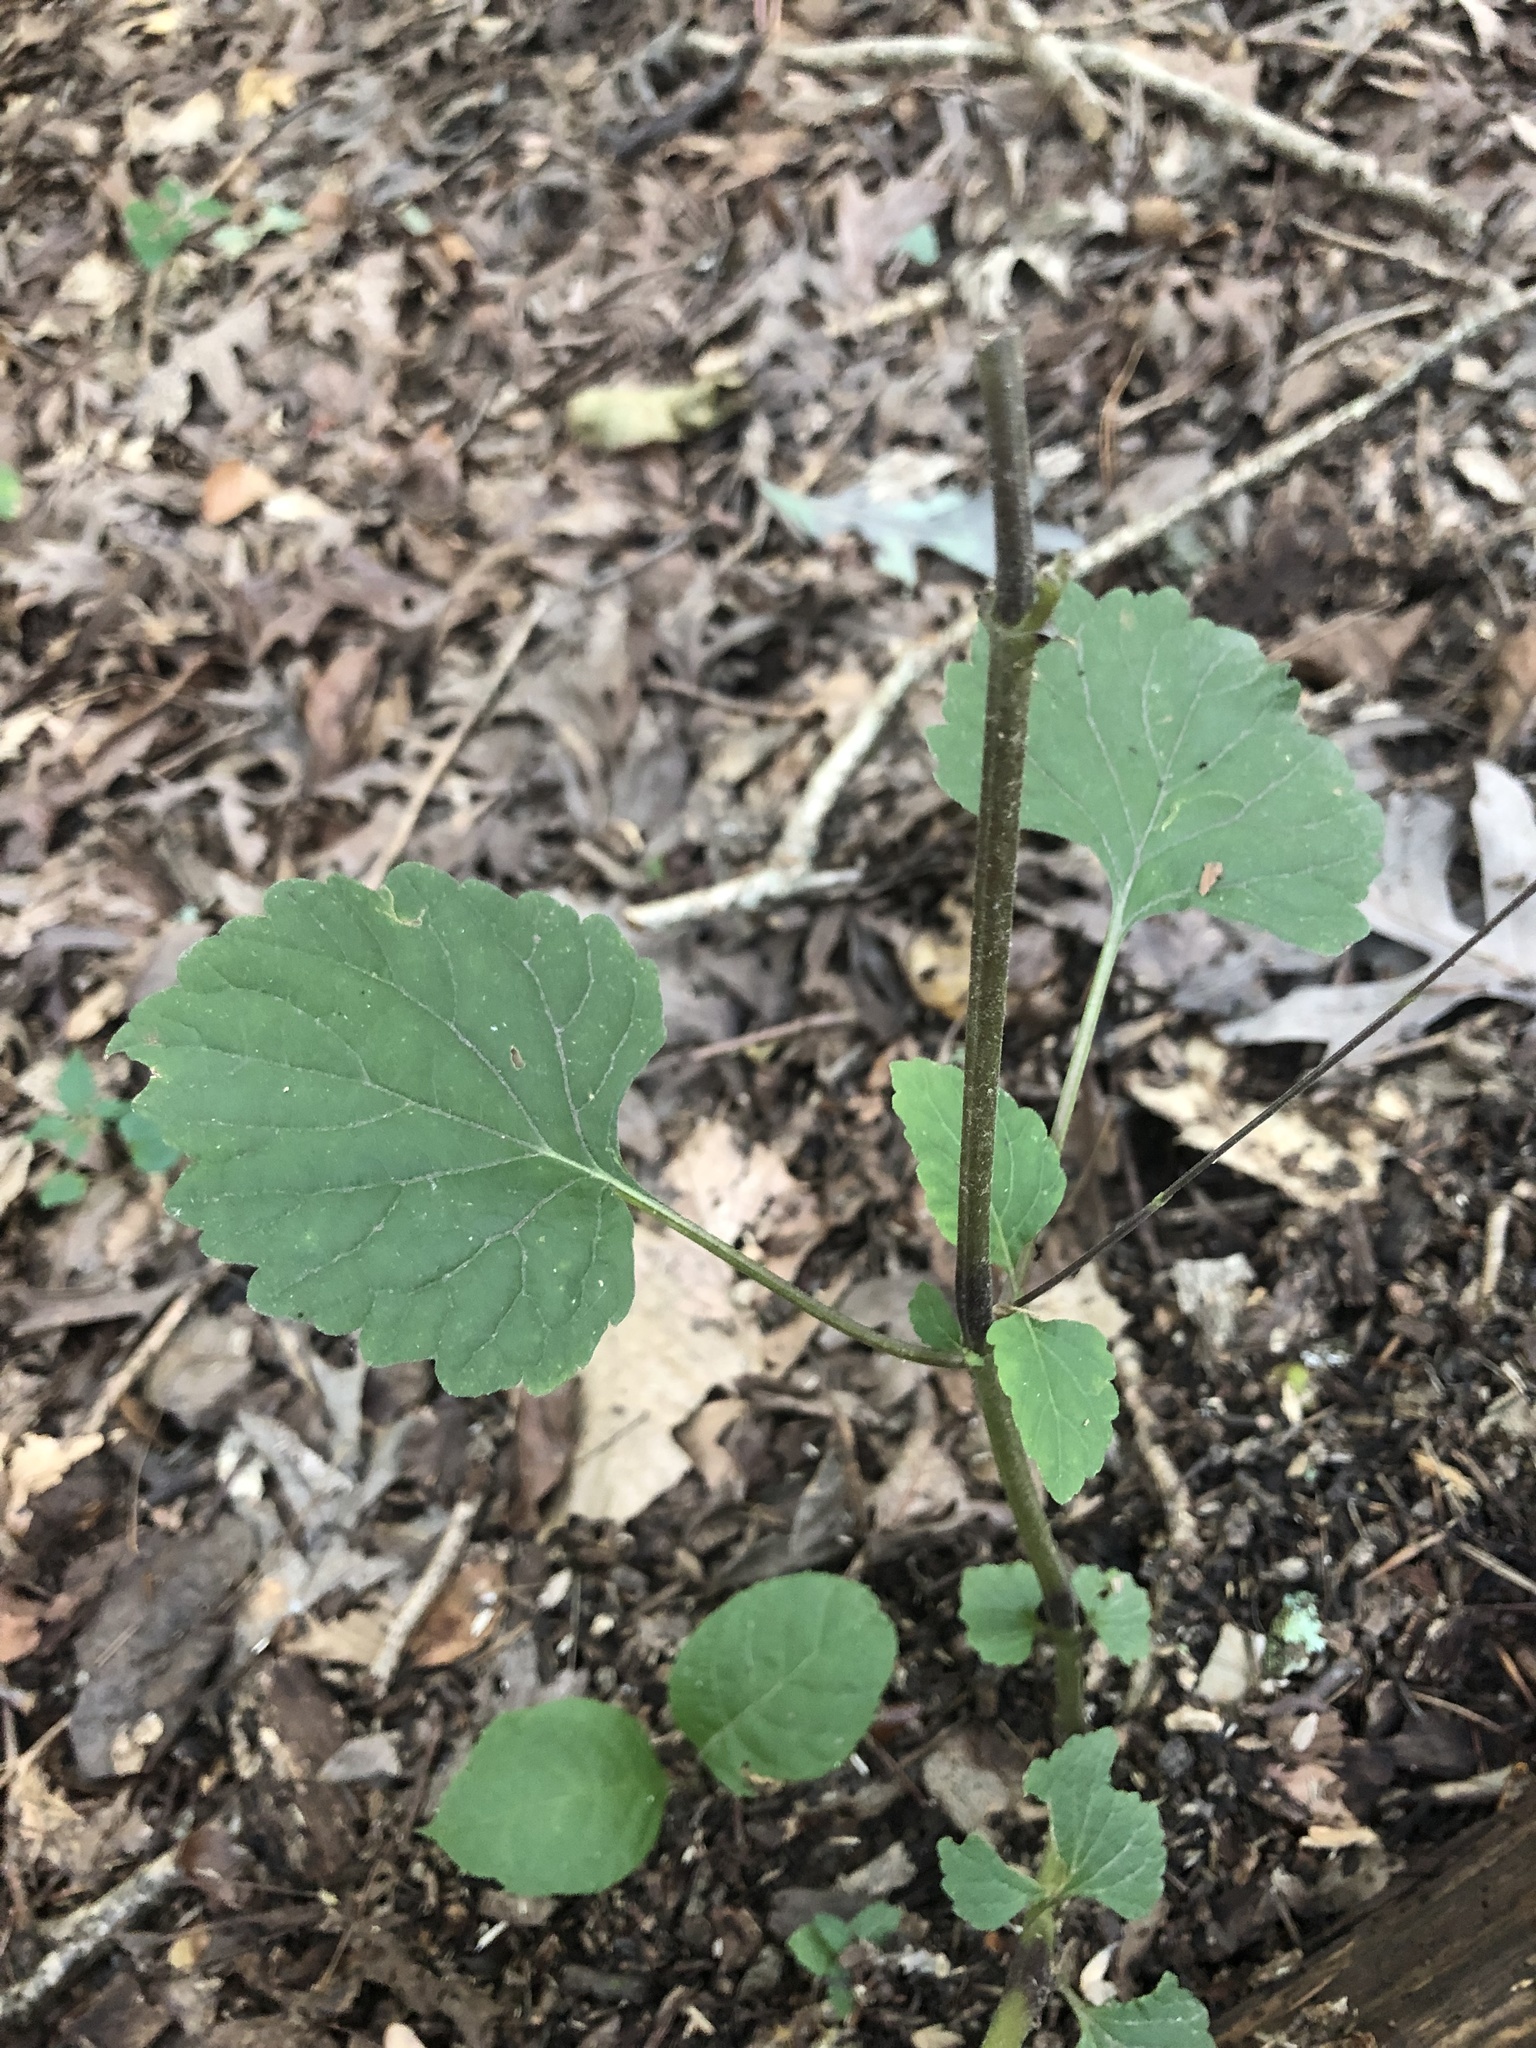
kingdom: Plantae
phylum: Tracheophyta
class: Magnoliopsida
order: Lamiales
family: Phrymaceae
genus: Phryma
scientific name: Phryma leptostachya
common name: American lopseed
